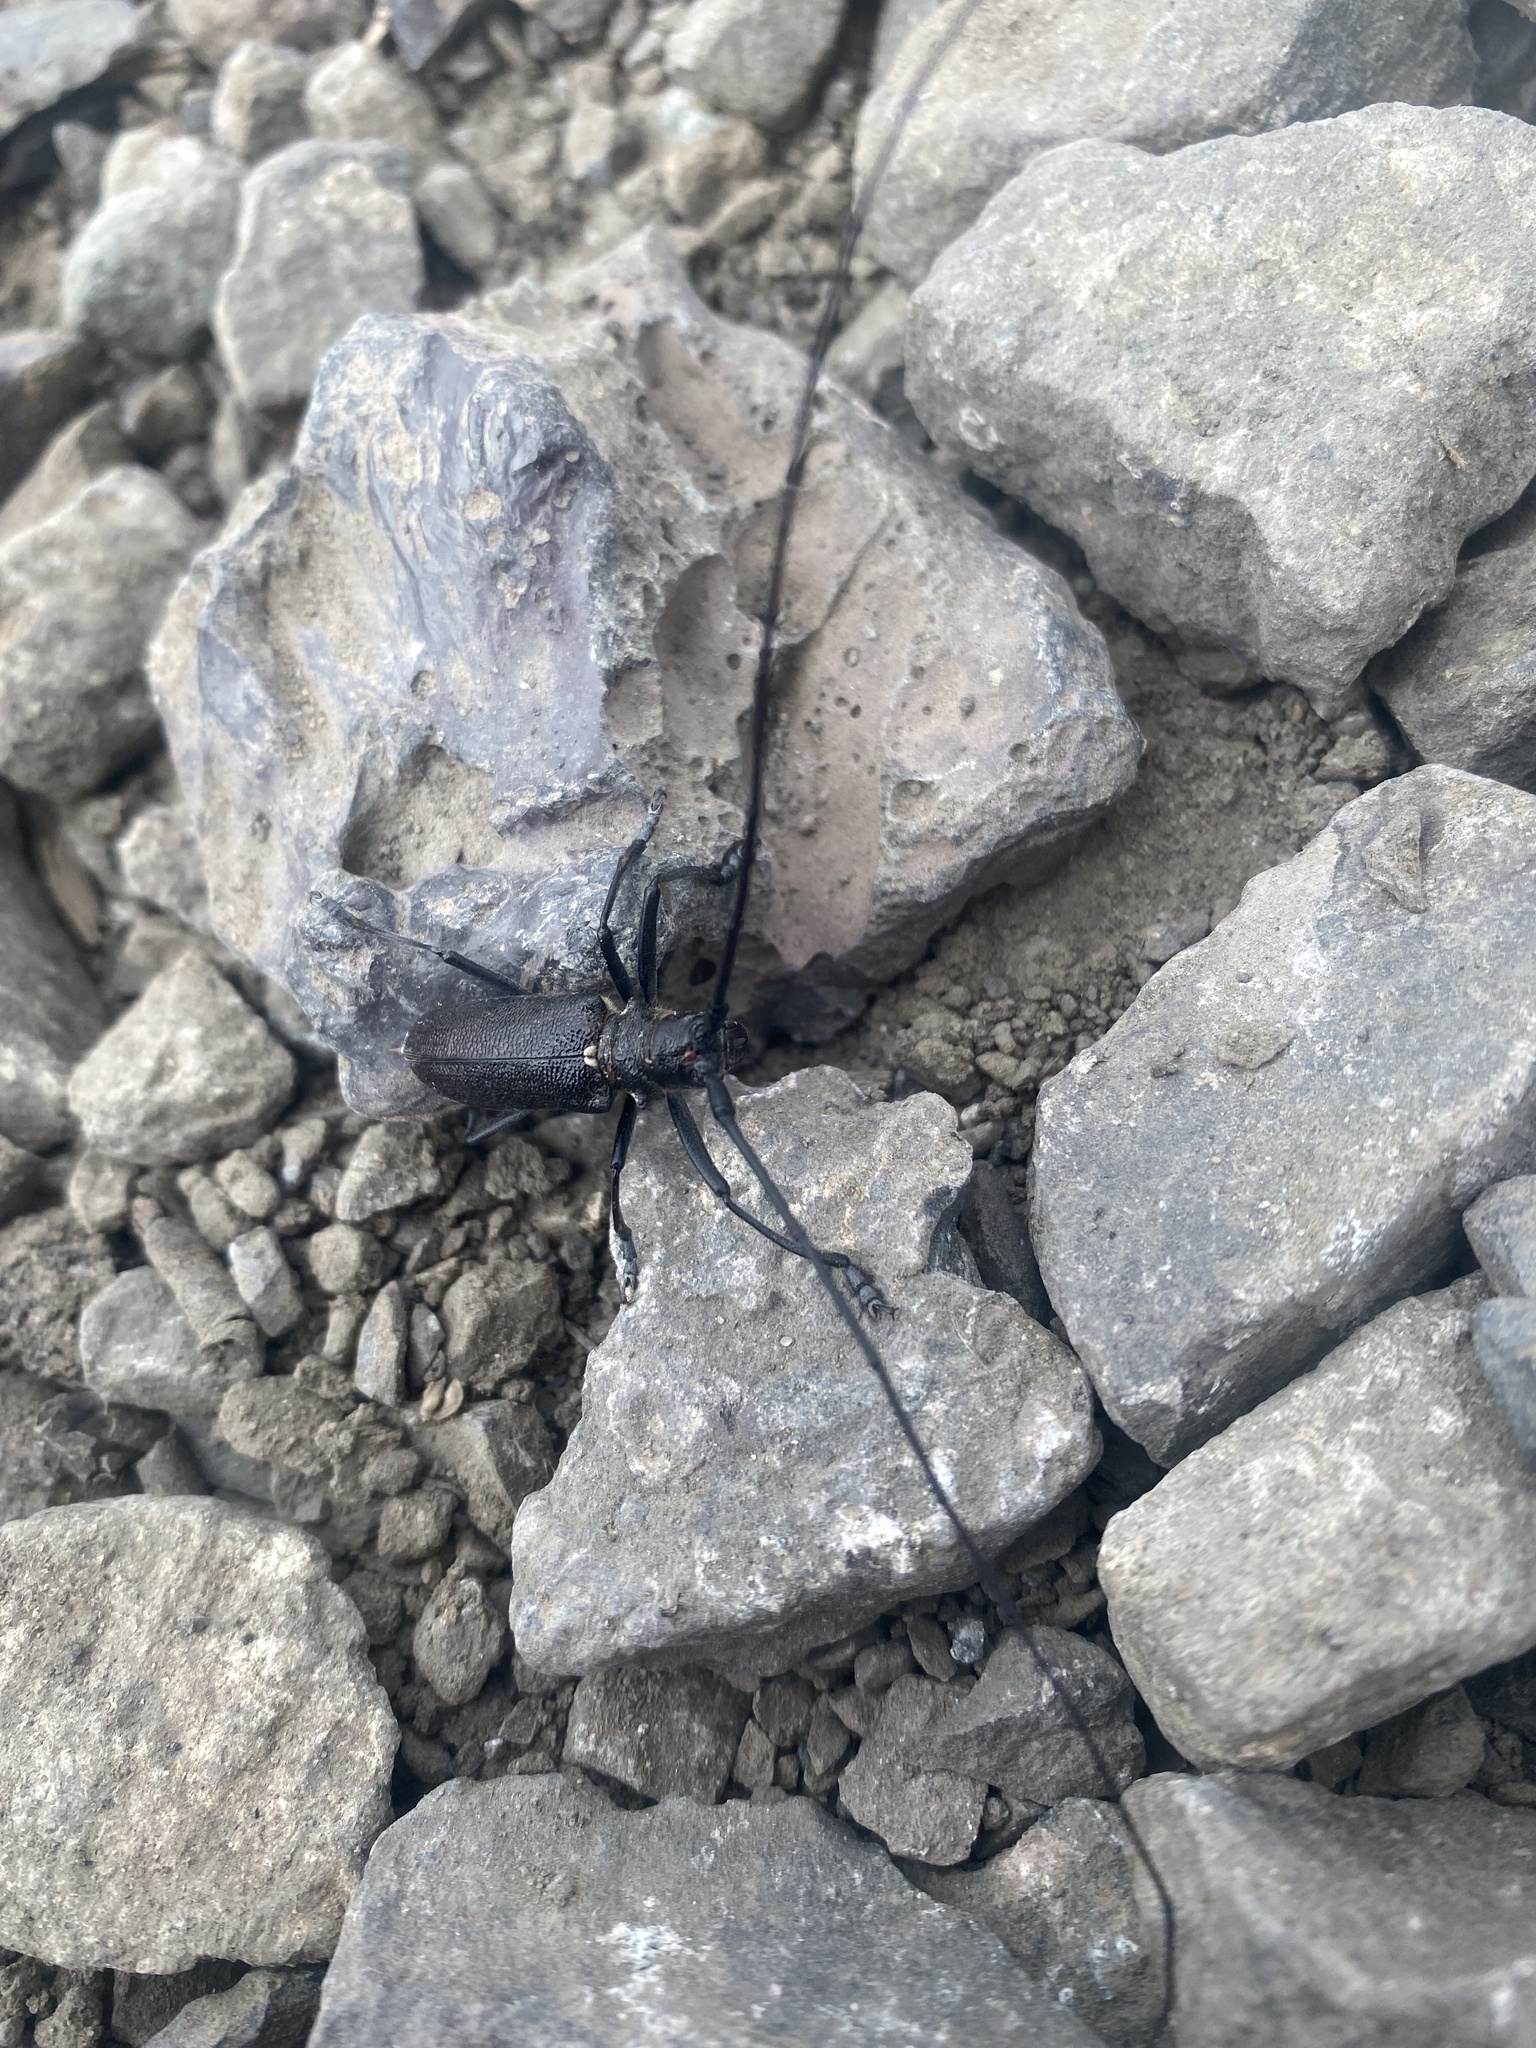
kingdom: Animalia
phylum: Arthropoda
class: Insecta
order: Coleoptera
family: Cerambycidae
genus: Monochamus
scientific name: Monochamus sutor
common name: Pine sawyer
